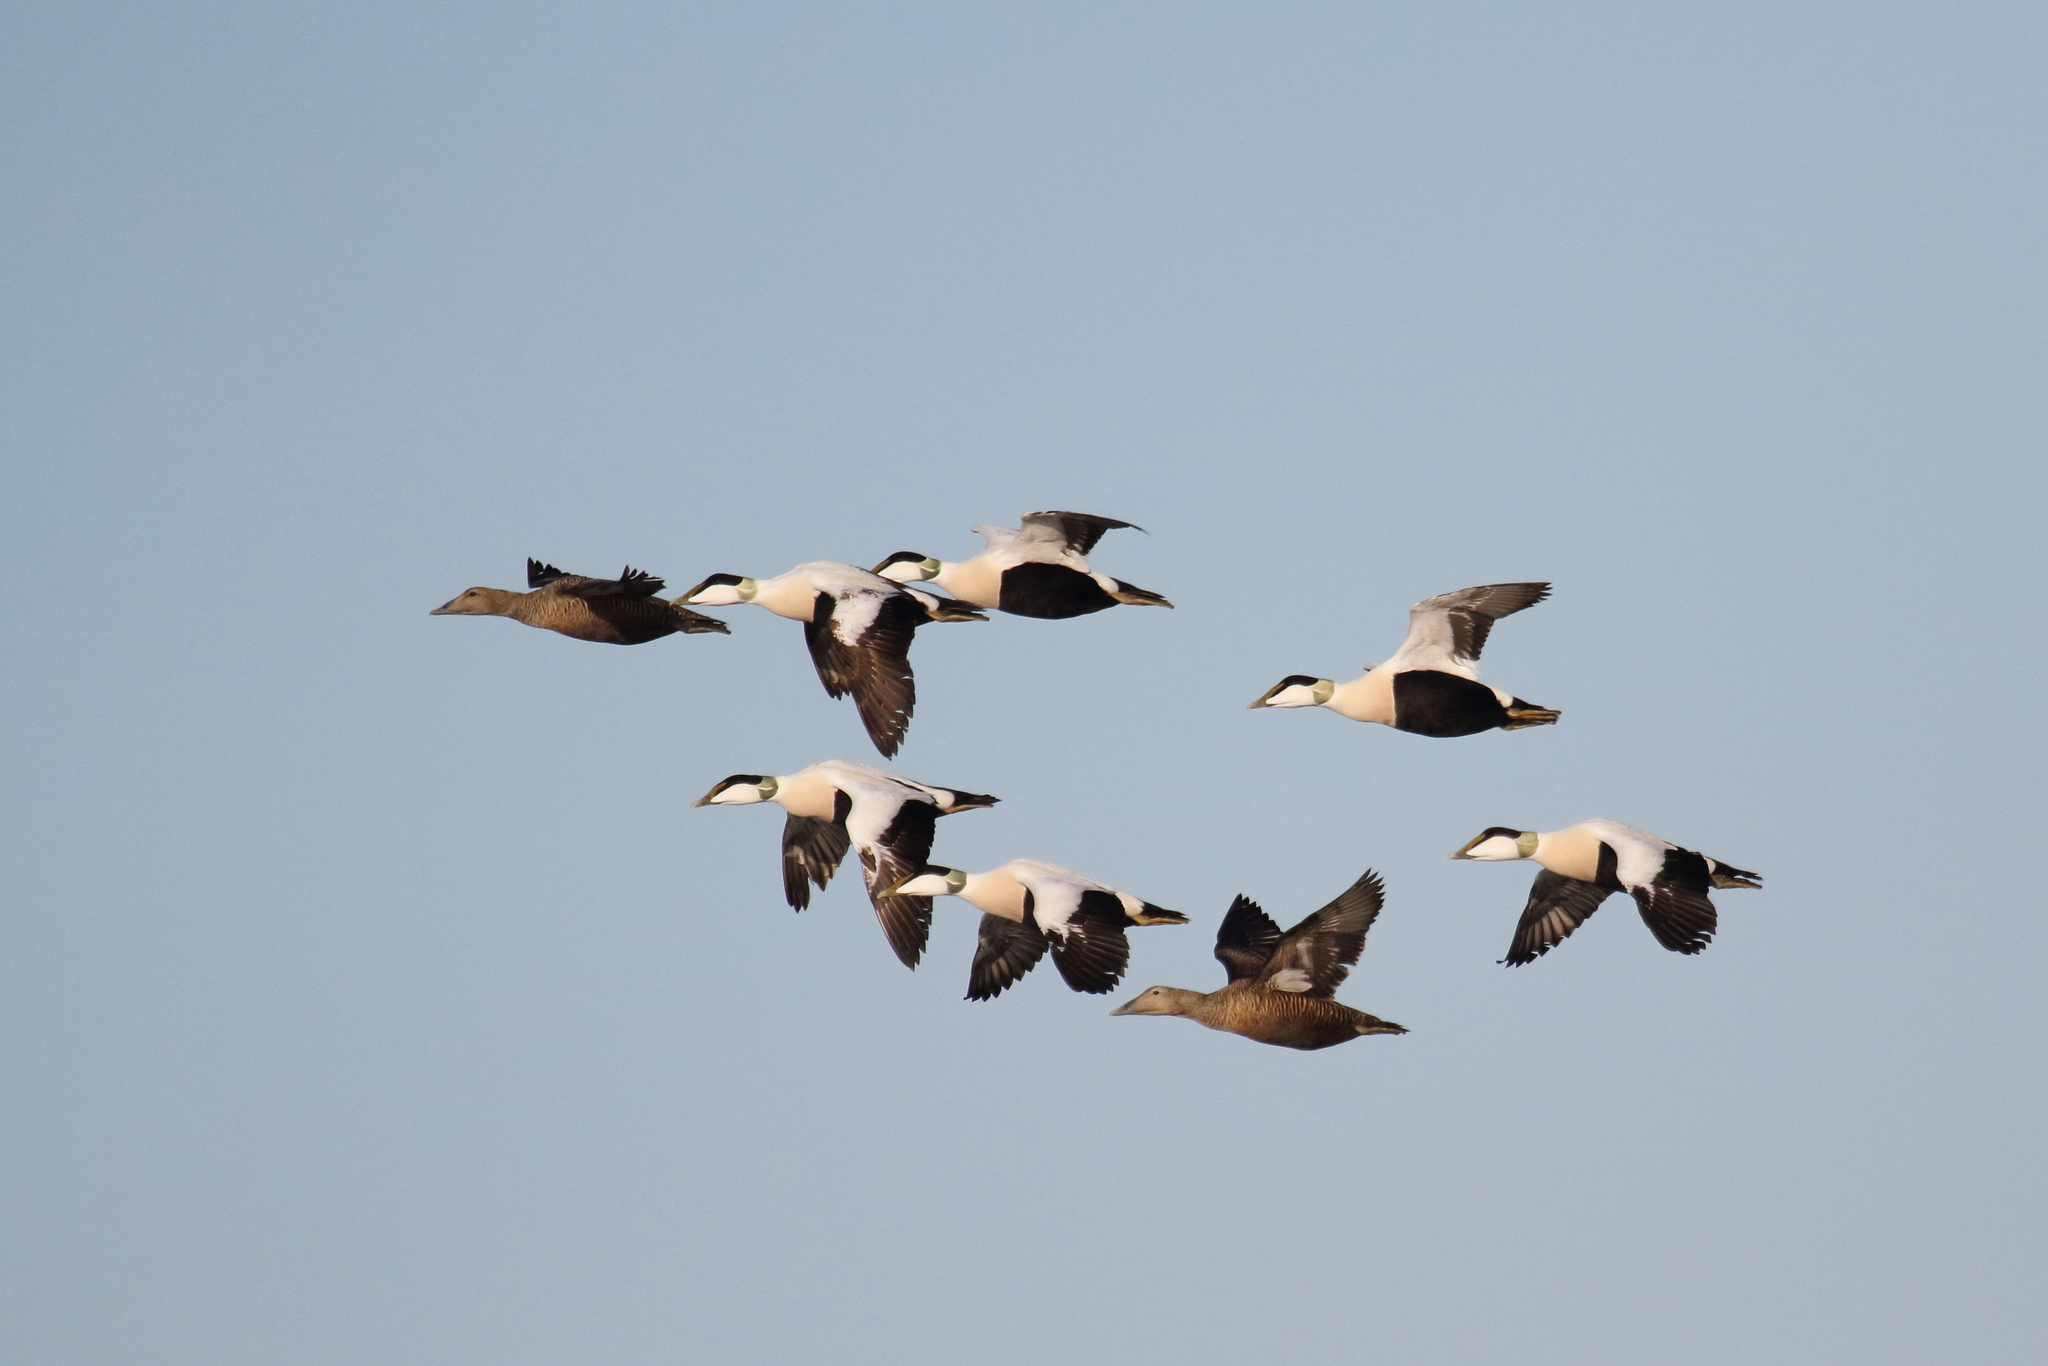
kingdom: Animalia
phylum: Chordata
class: Aves
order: Anseriformes
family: Anatidae
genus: Somateria
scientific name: Somateria mollissima
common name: Common eider
